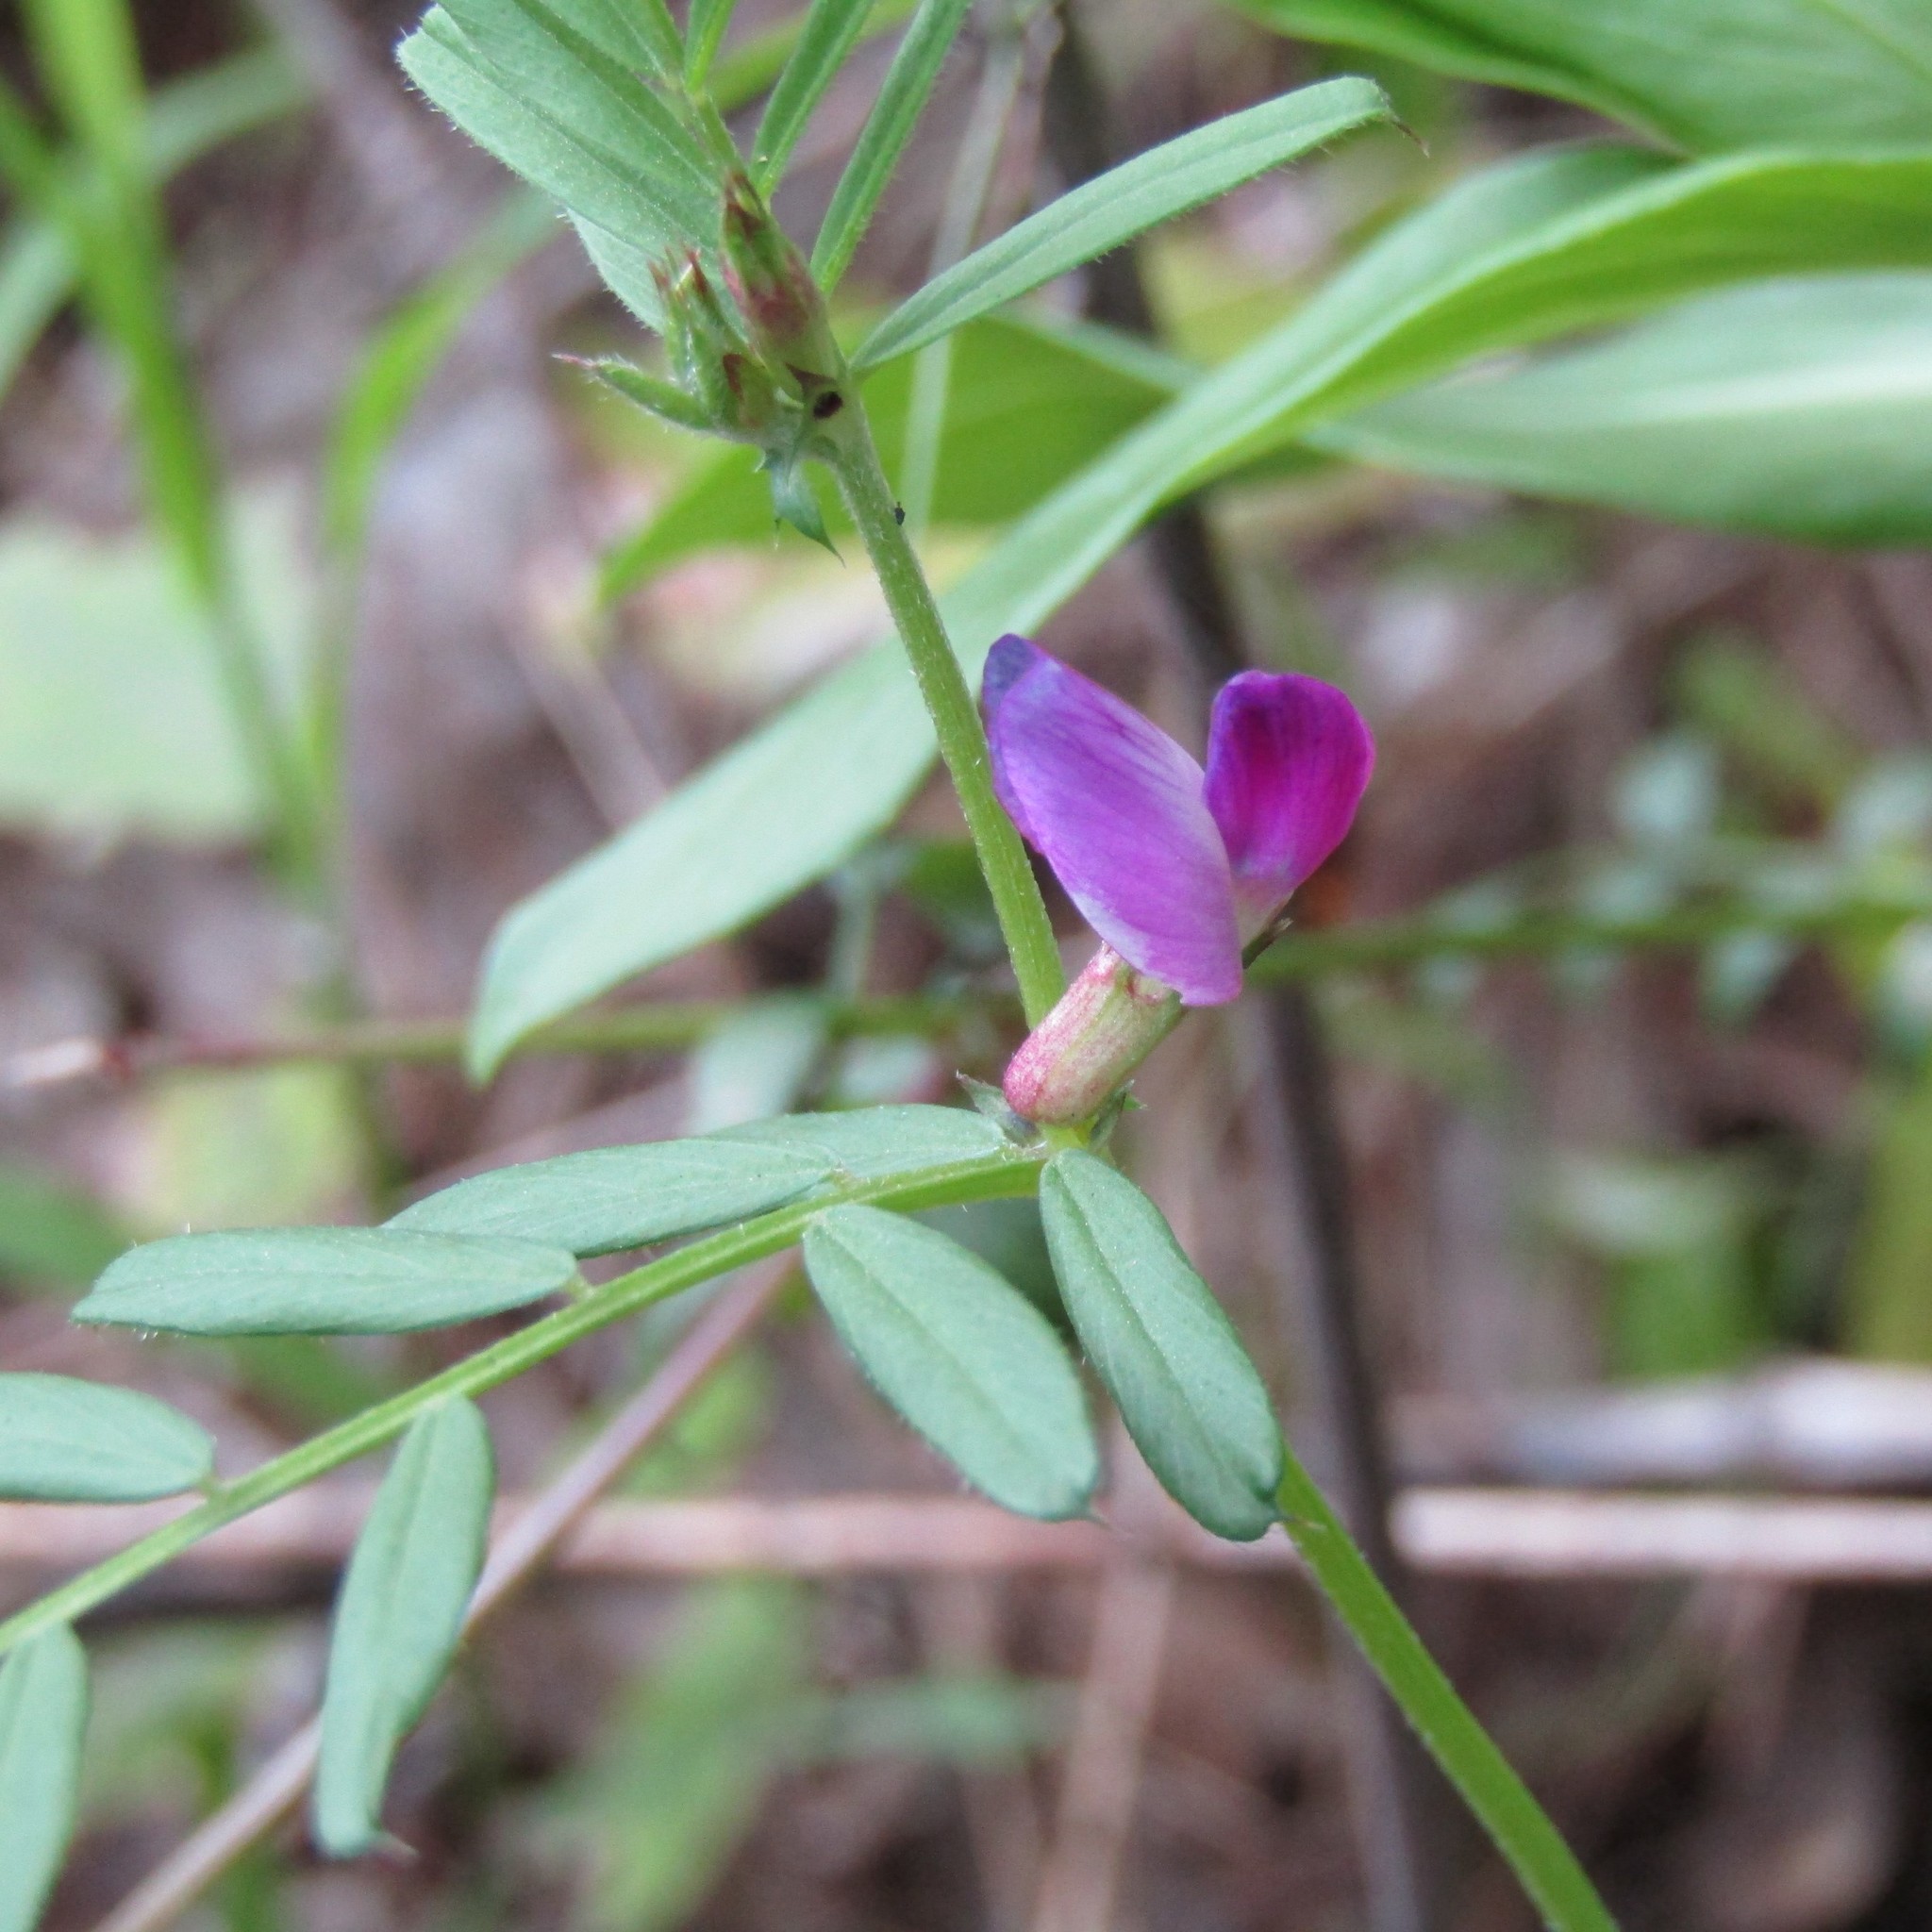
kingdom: Plantae
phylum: Tracheophyta
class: Magnoliopsida
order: Fabales
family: Fabaceae
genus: Vicia
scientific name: Vicia sativa
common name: Garden vetch
